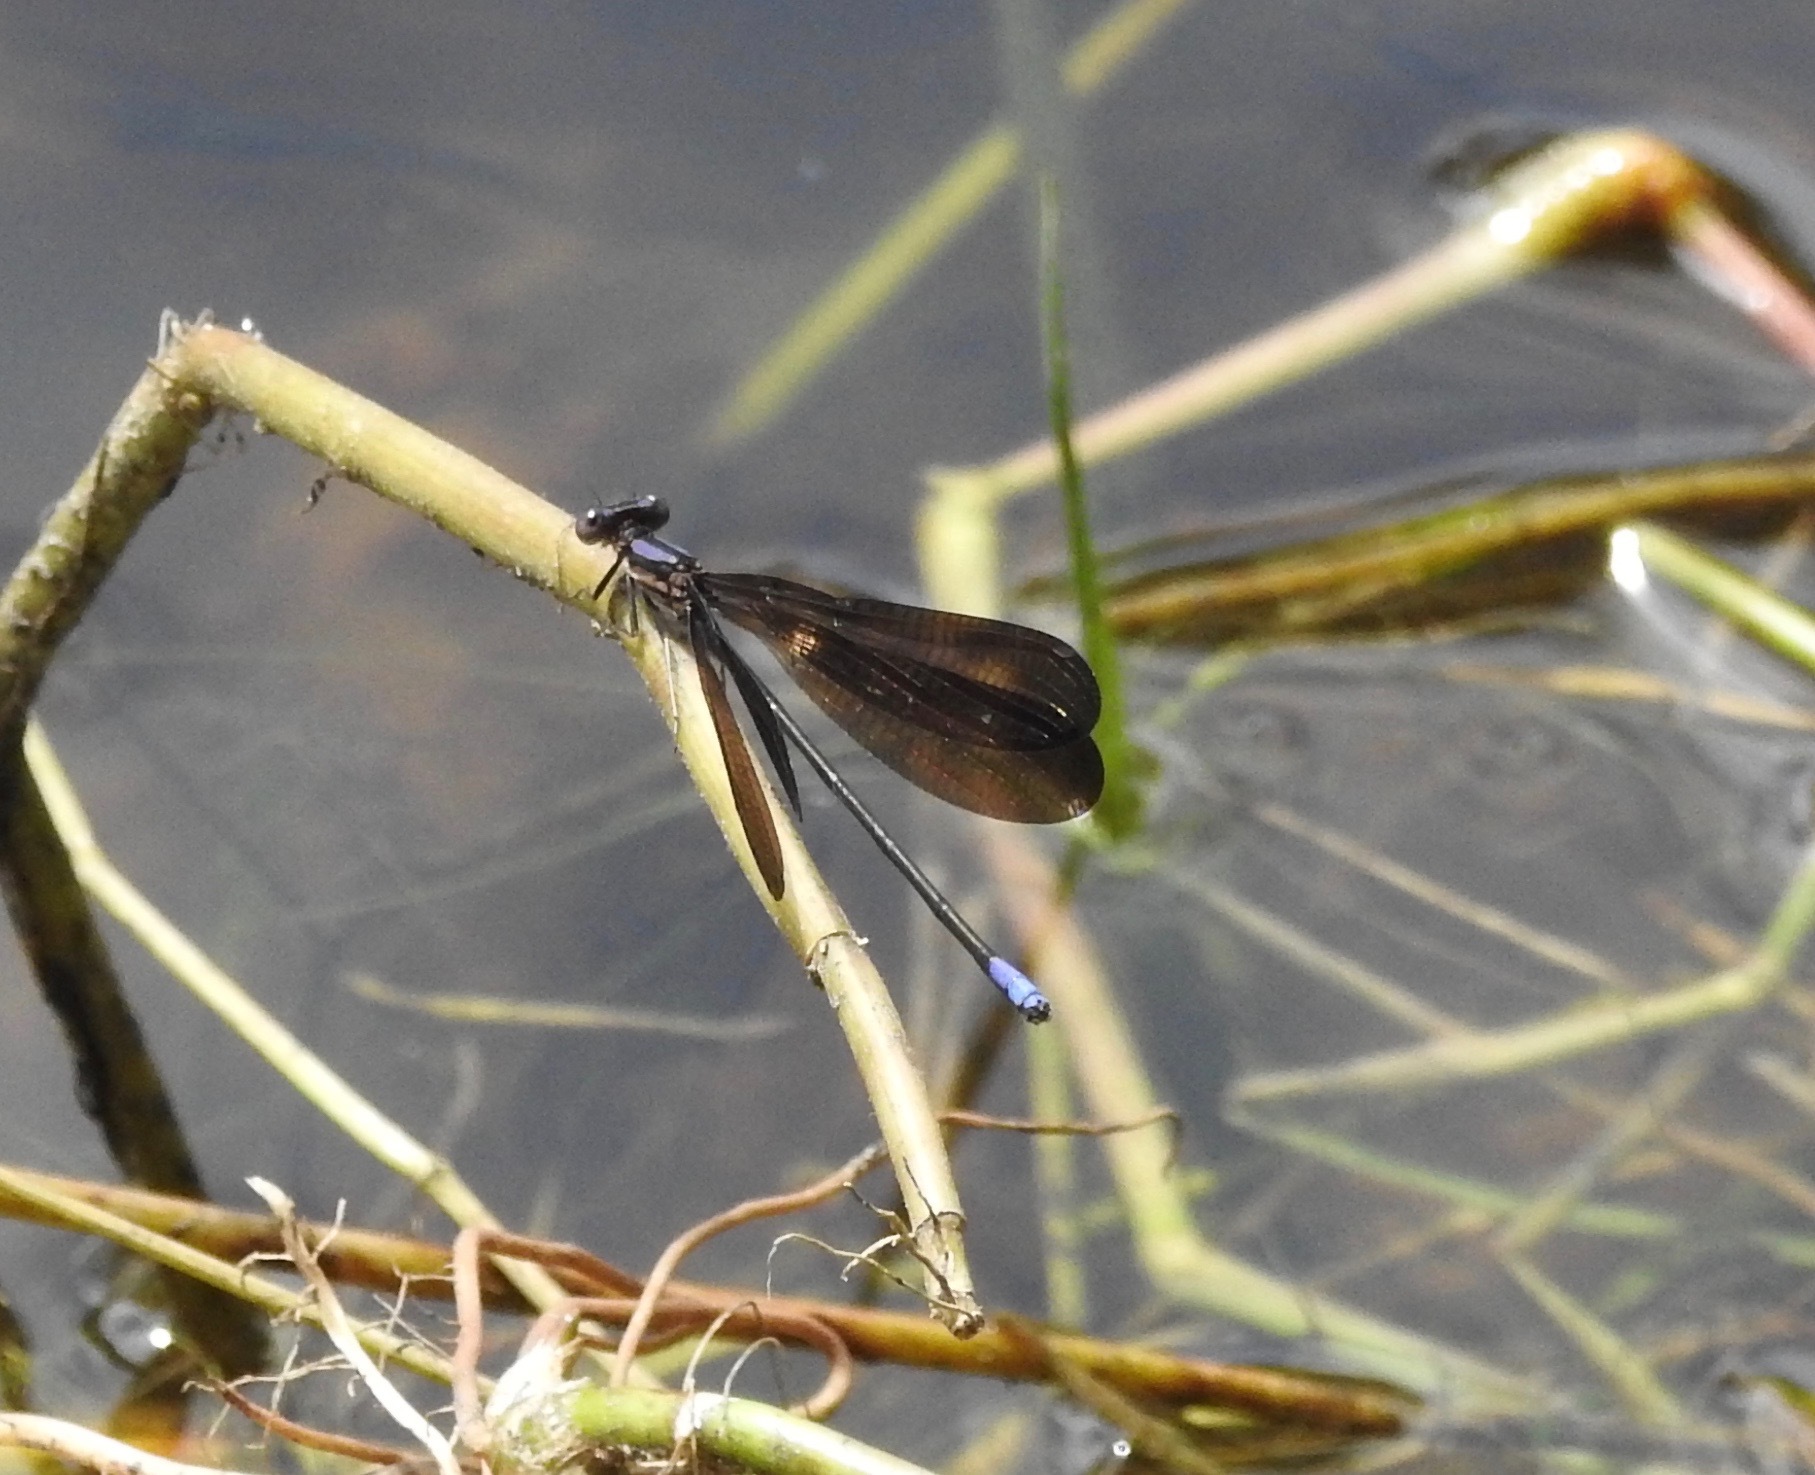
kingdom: Animalia
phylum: Arthropoda
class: Insecta
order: Odonata
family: Coenagrionidae
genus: Argia
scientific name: Argia fumipennis
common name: Variable dancer
